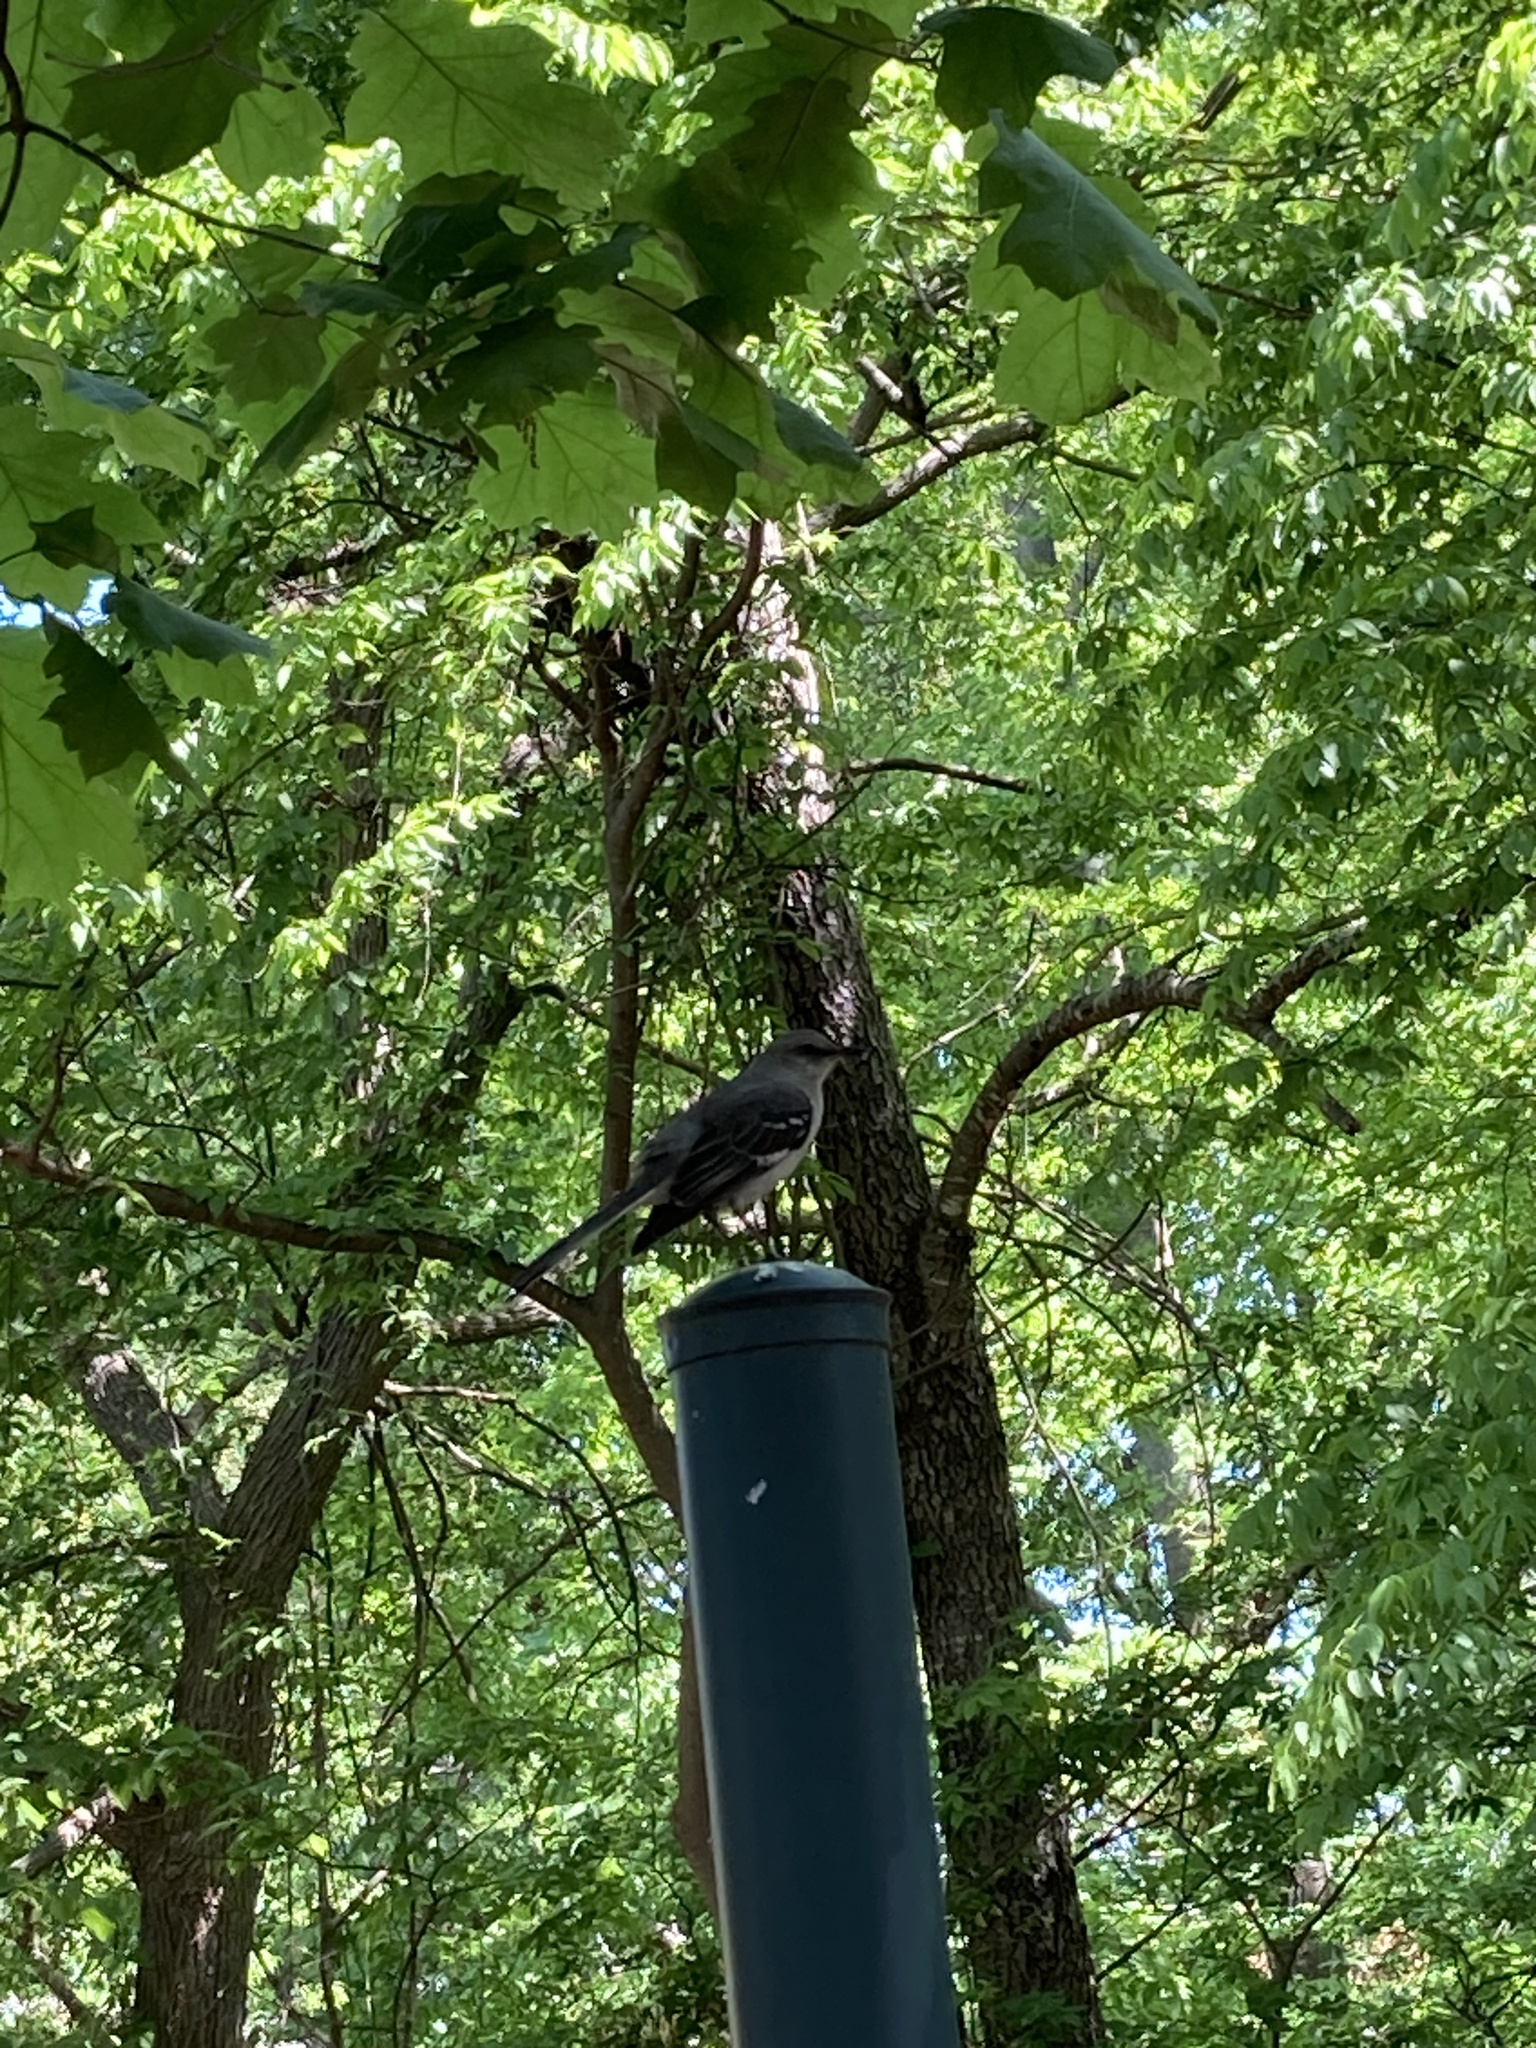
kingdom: Animalia
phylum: Chordata
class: Aves
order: Passeriformes
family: Mimidae
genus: Mimus
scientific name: Mimus polyglottos
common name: Northern mockingbird
